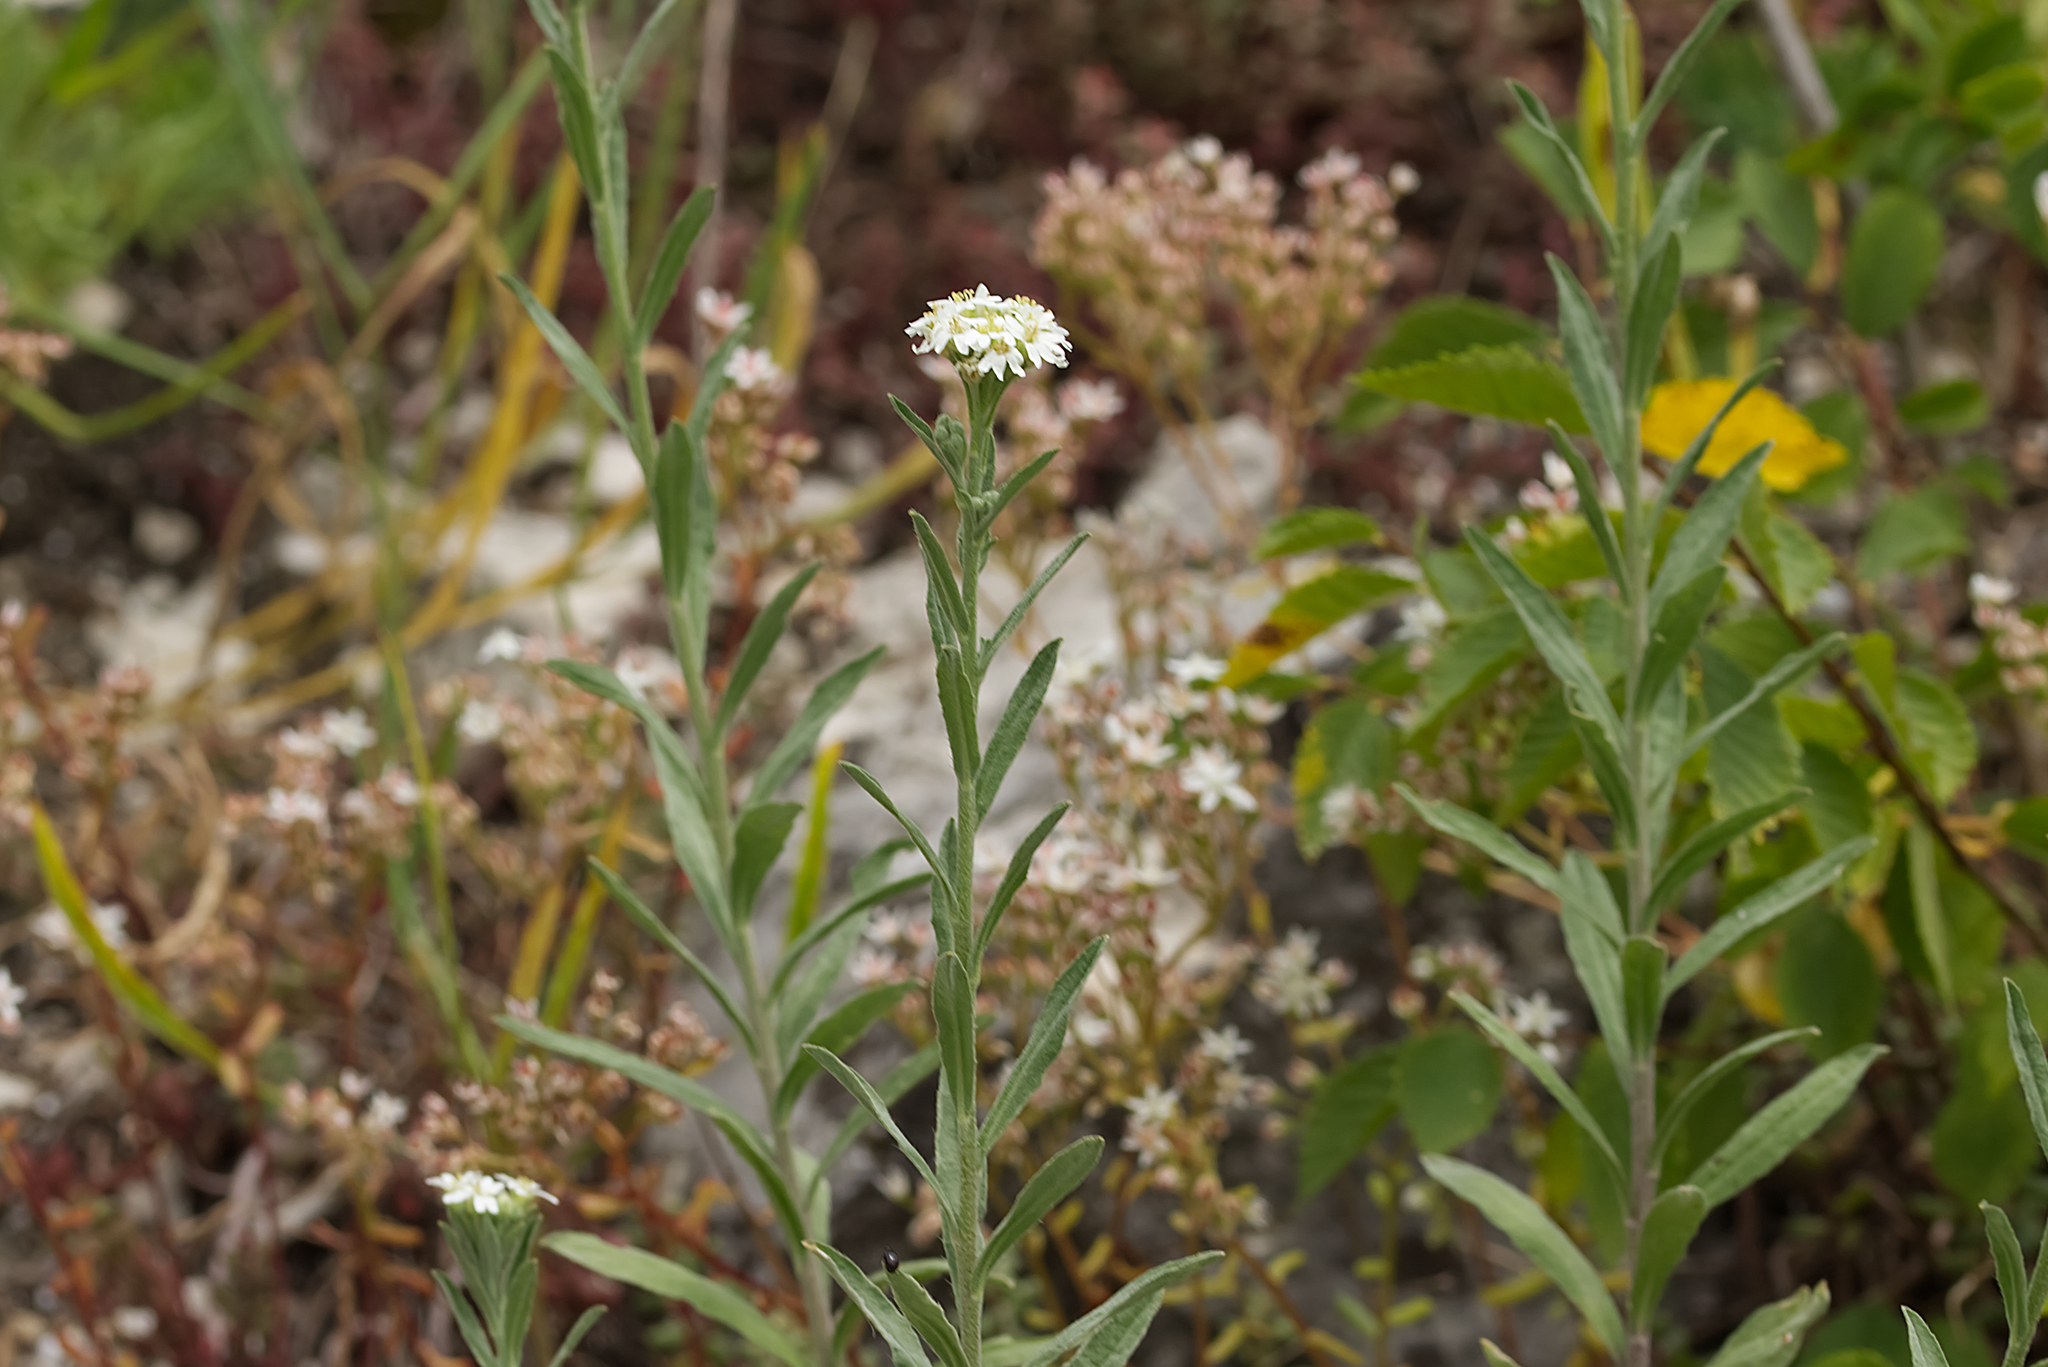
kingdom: Plantae
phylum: Tracheophyta
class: Magnoliopsida
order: Brassicales
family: Brassicaceae
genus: Berteroa
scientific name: Berteroa incana
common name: Hoary alison
